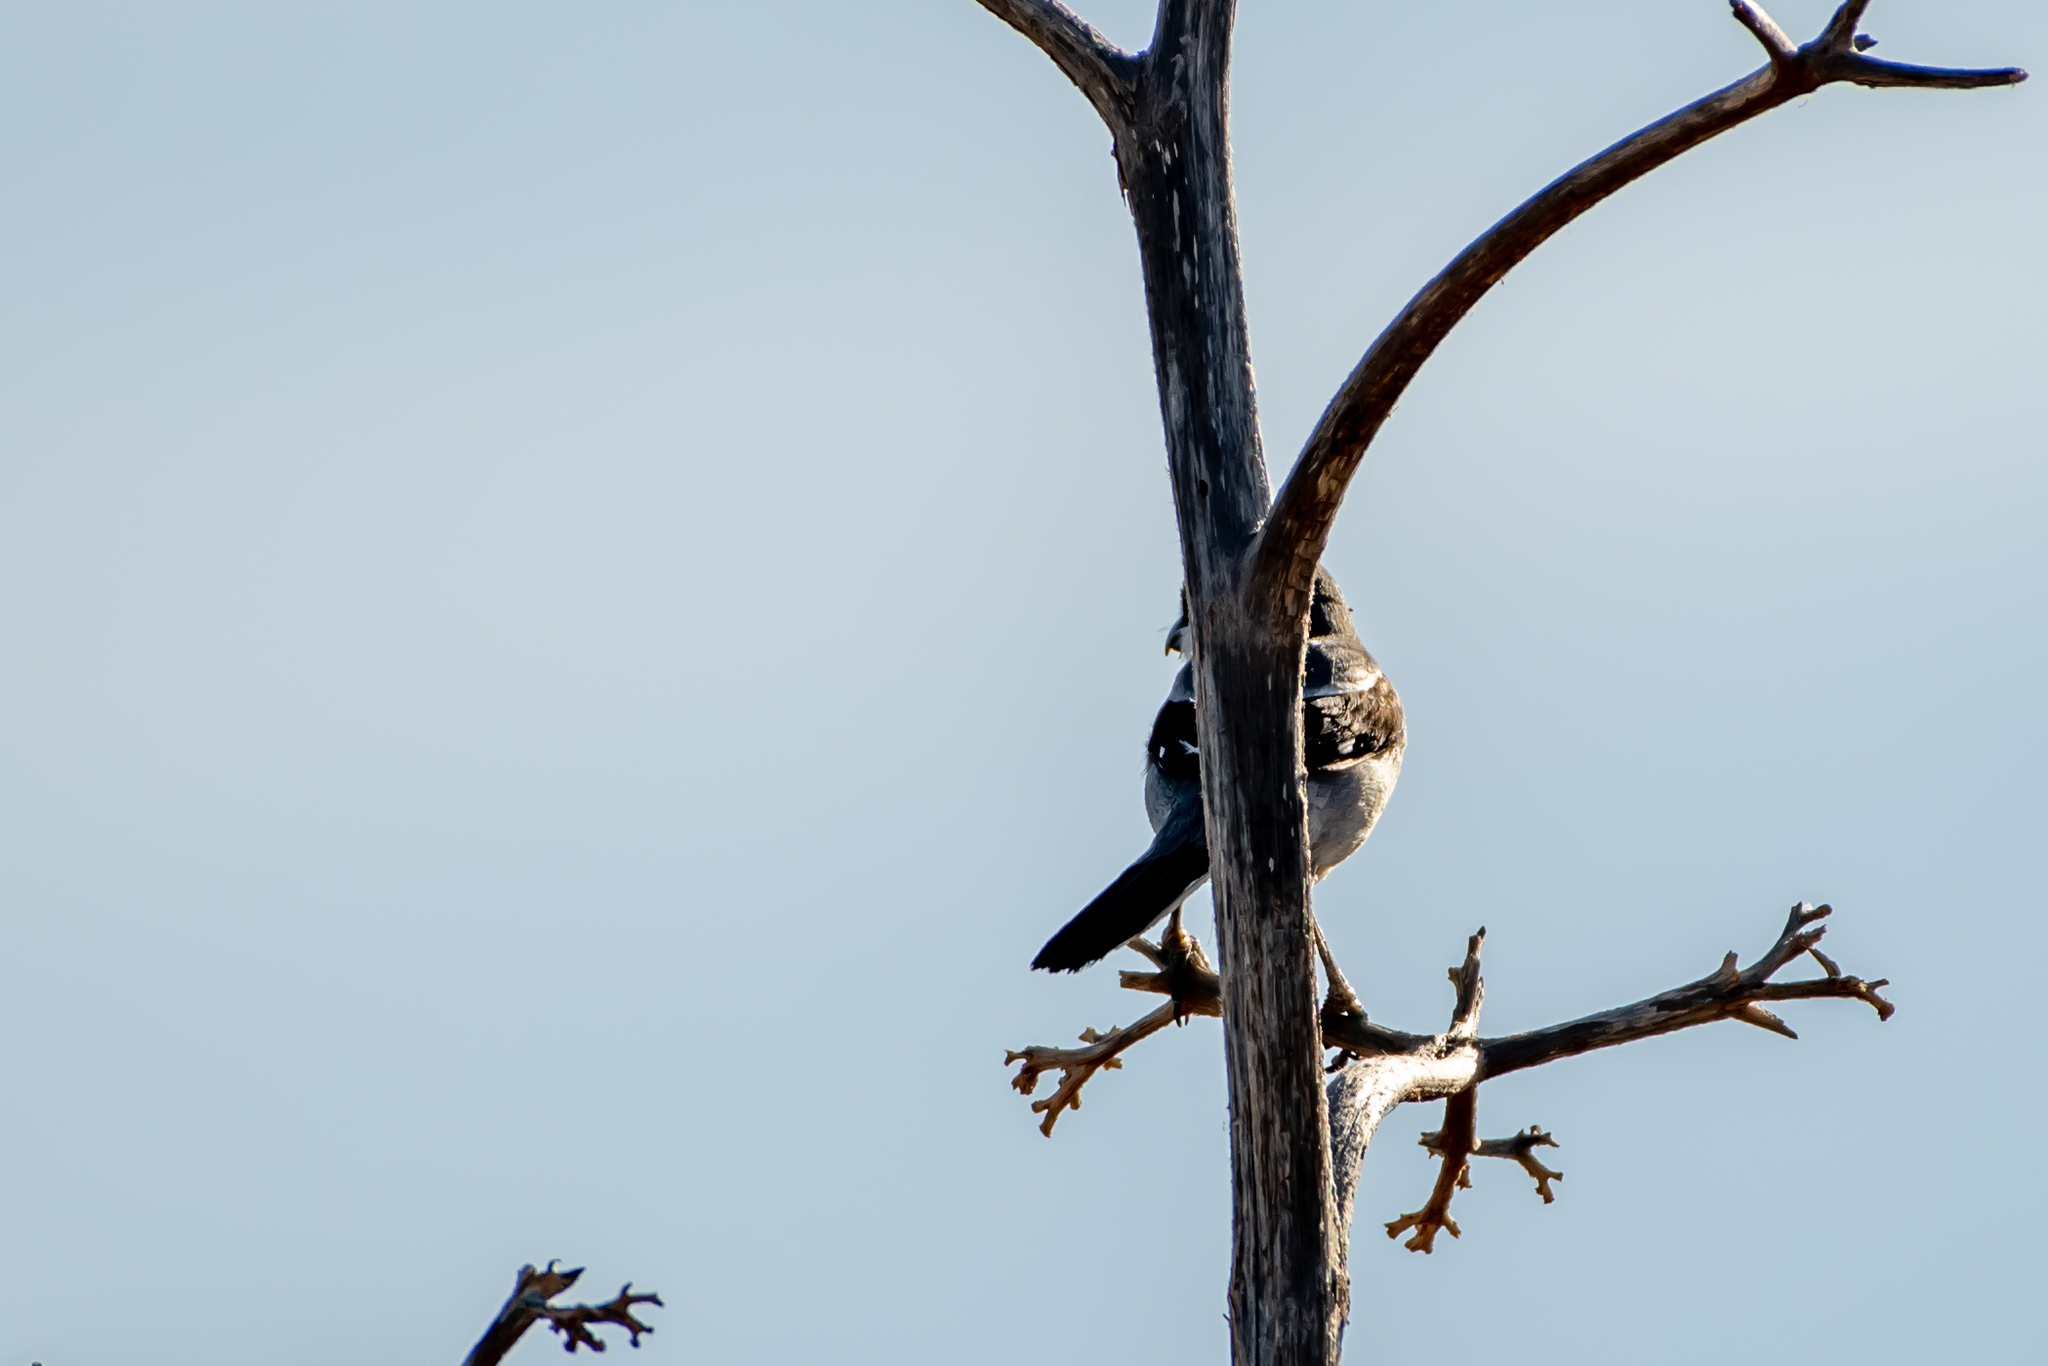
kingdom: Animalia
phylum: Chordata
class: Aves
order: Passeriformes
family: Laniidae
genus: Lanius
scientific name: Lanius excubitor
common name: Great grey shrike
